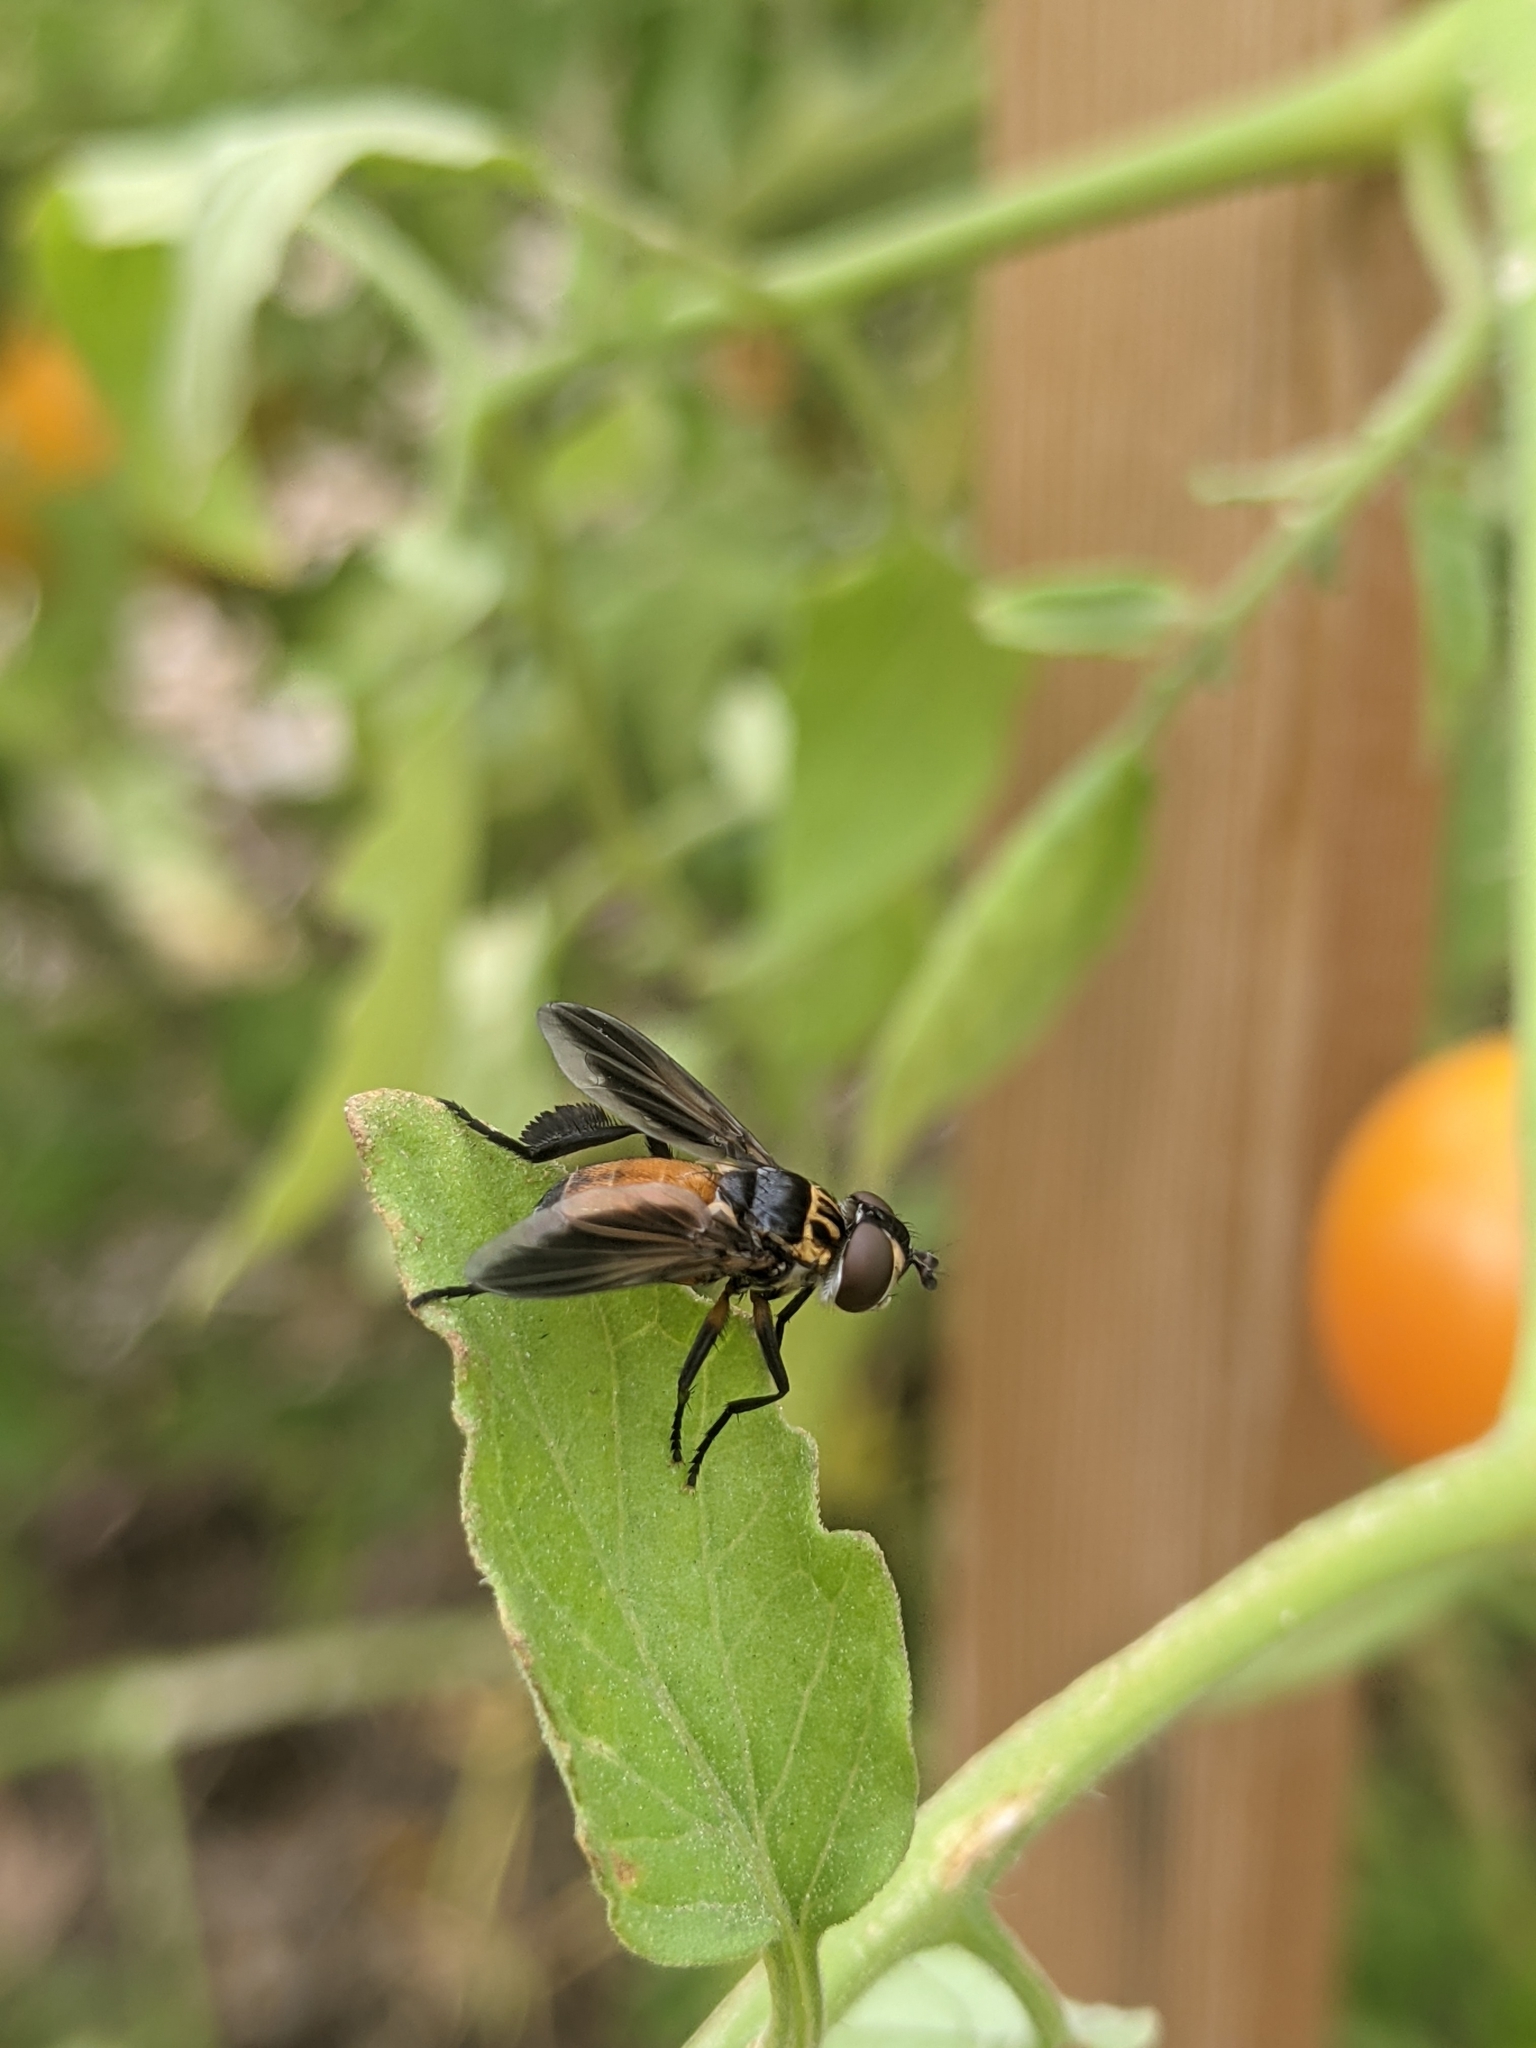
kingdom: Animalia
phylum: Arthropoda
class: Insecta
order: Diptera
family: Tachinidae
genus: Trichopoda
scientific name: Trichopoda
